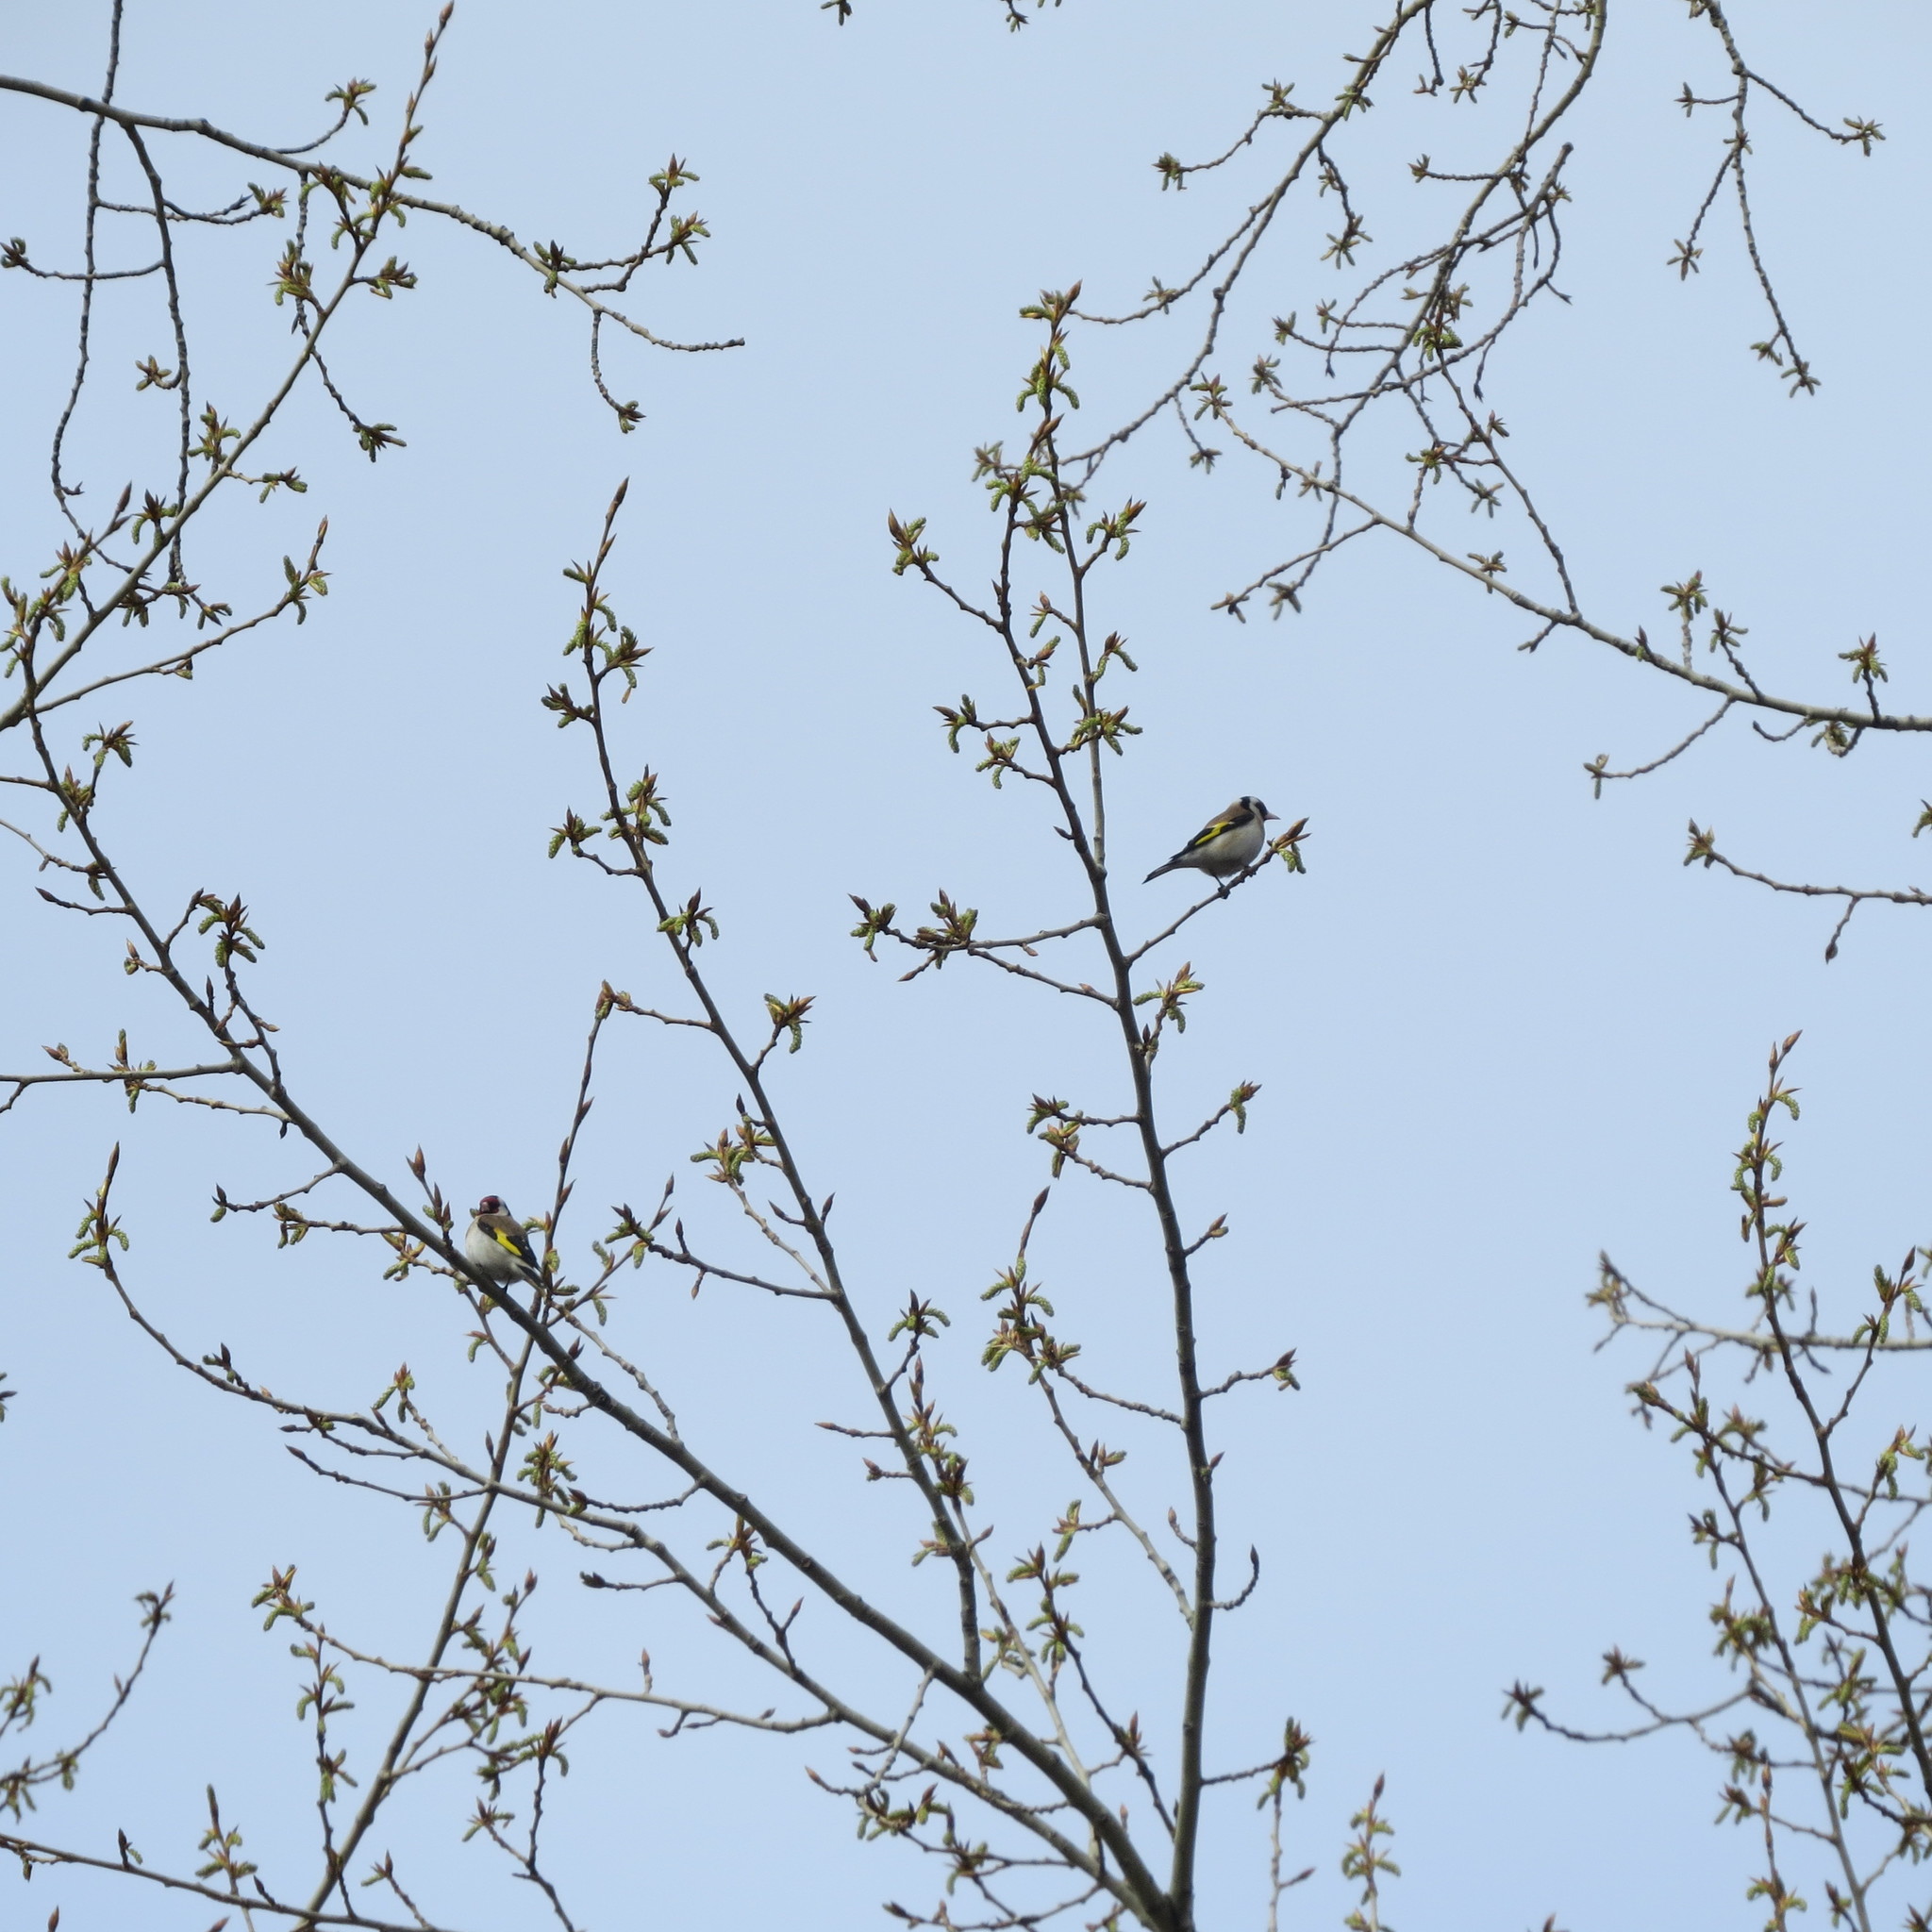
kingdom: Animalia
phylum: Chordata
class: Aves
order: Passeriformes
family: Fringillidae
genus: Carduelis
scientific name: Carduelis carduelis
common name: European goldfinch
